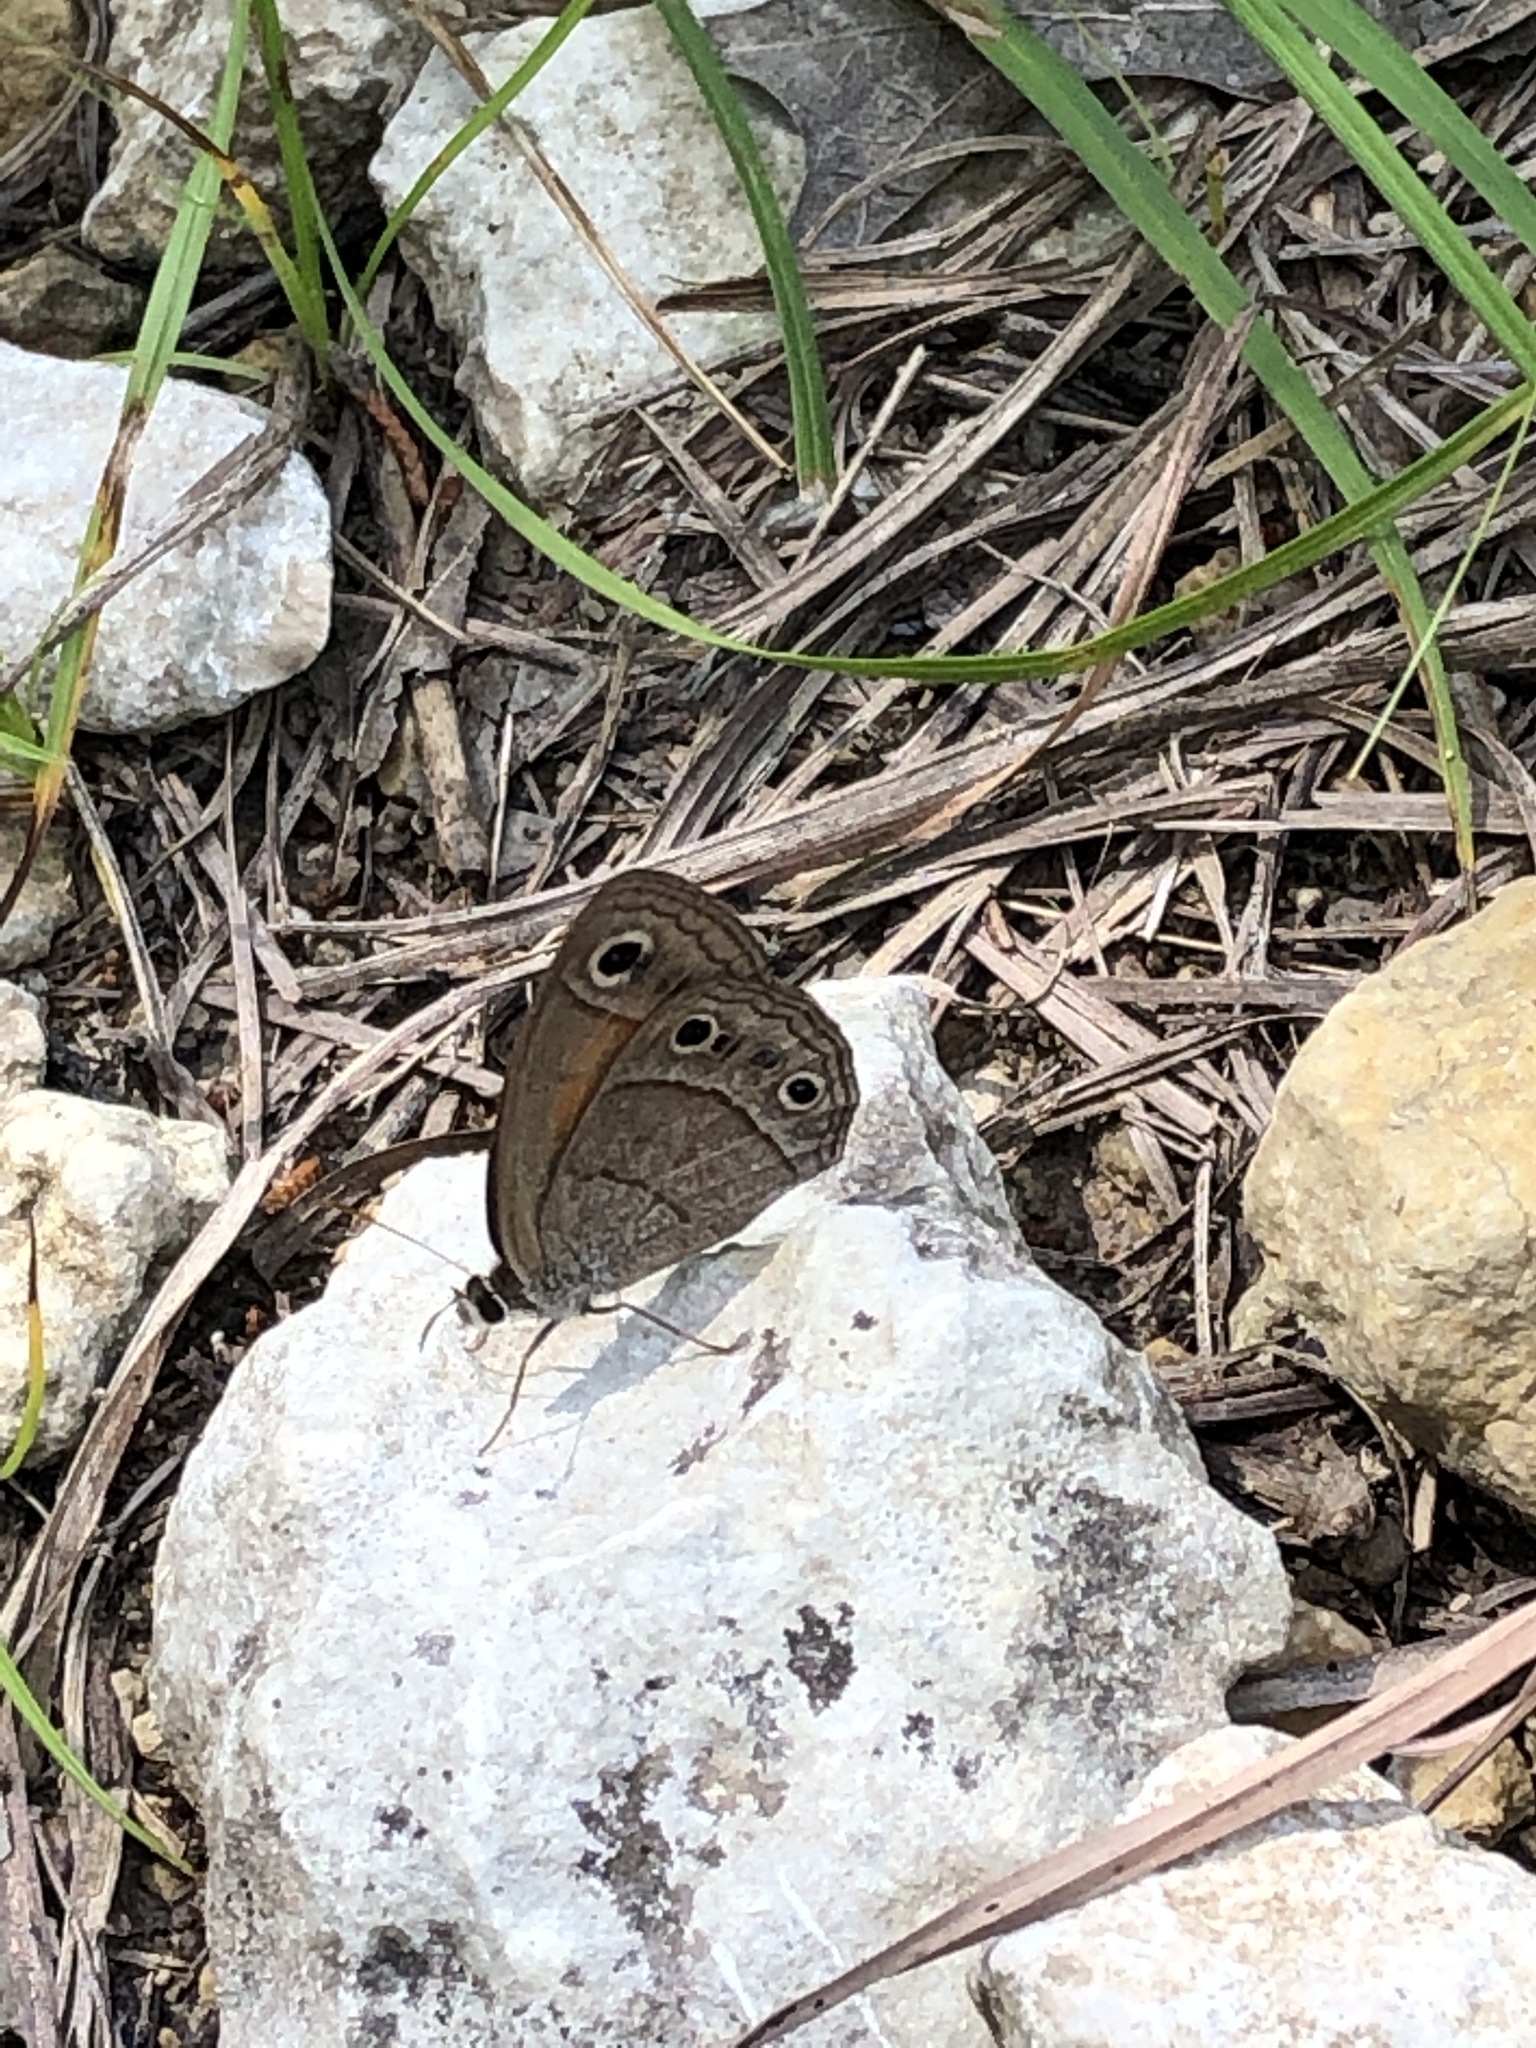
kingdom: Animalia
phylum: Arthropoda
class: Insecta
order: Lepidoptera
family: Nymphalidae
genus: Euptychia
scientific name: Euptychia Cissia rubricata
